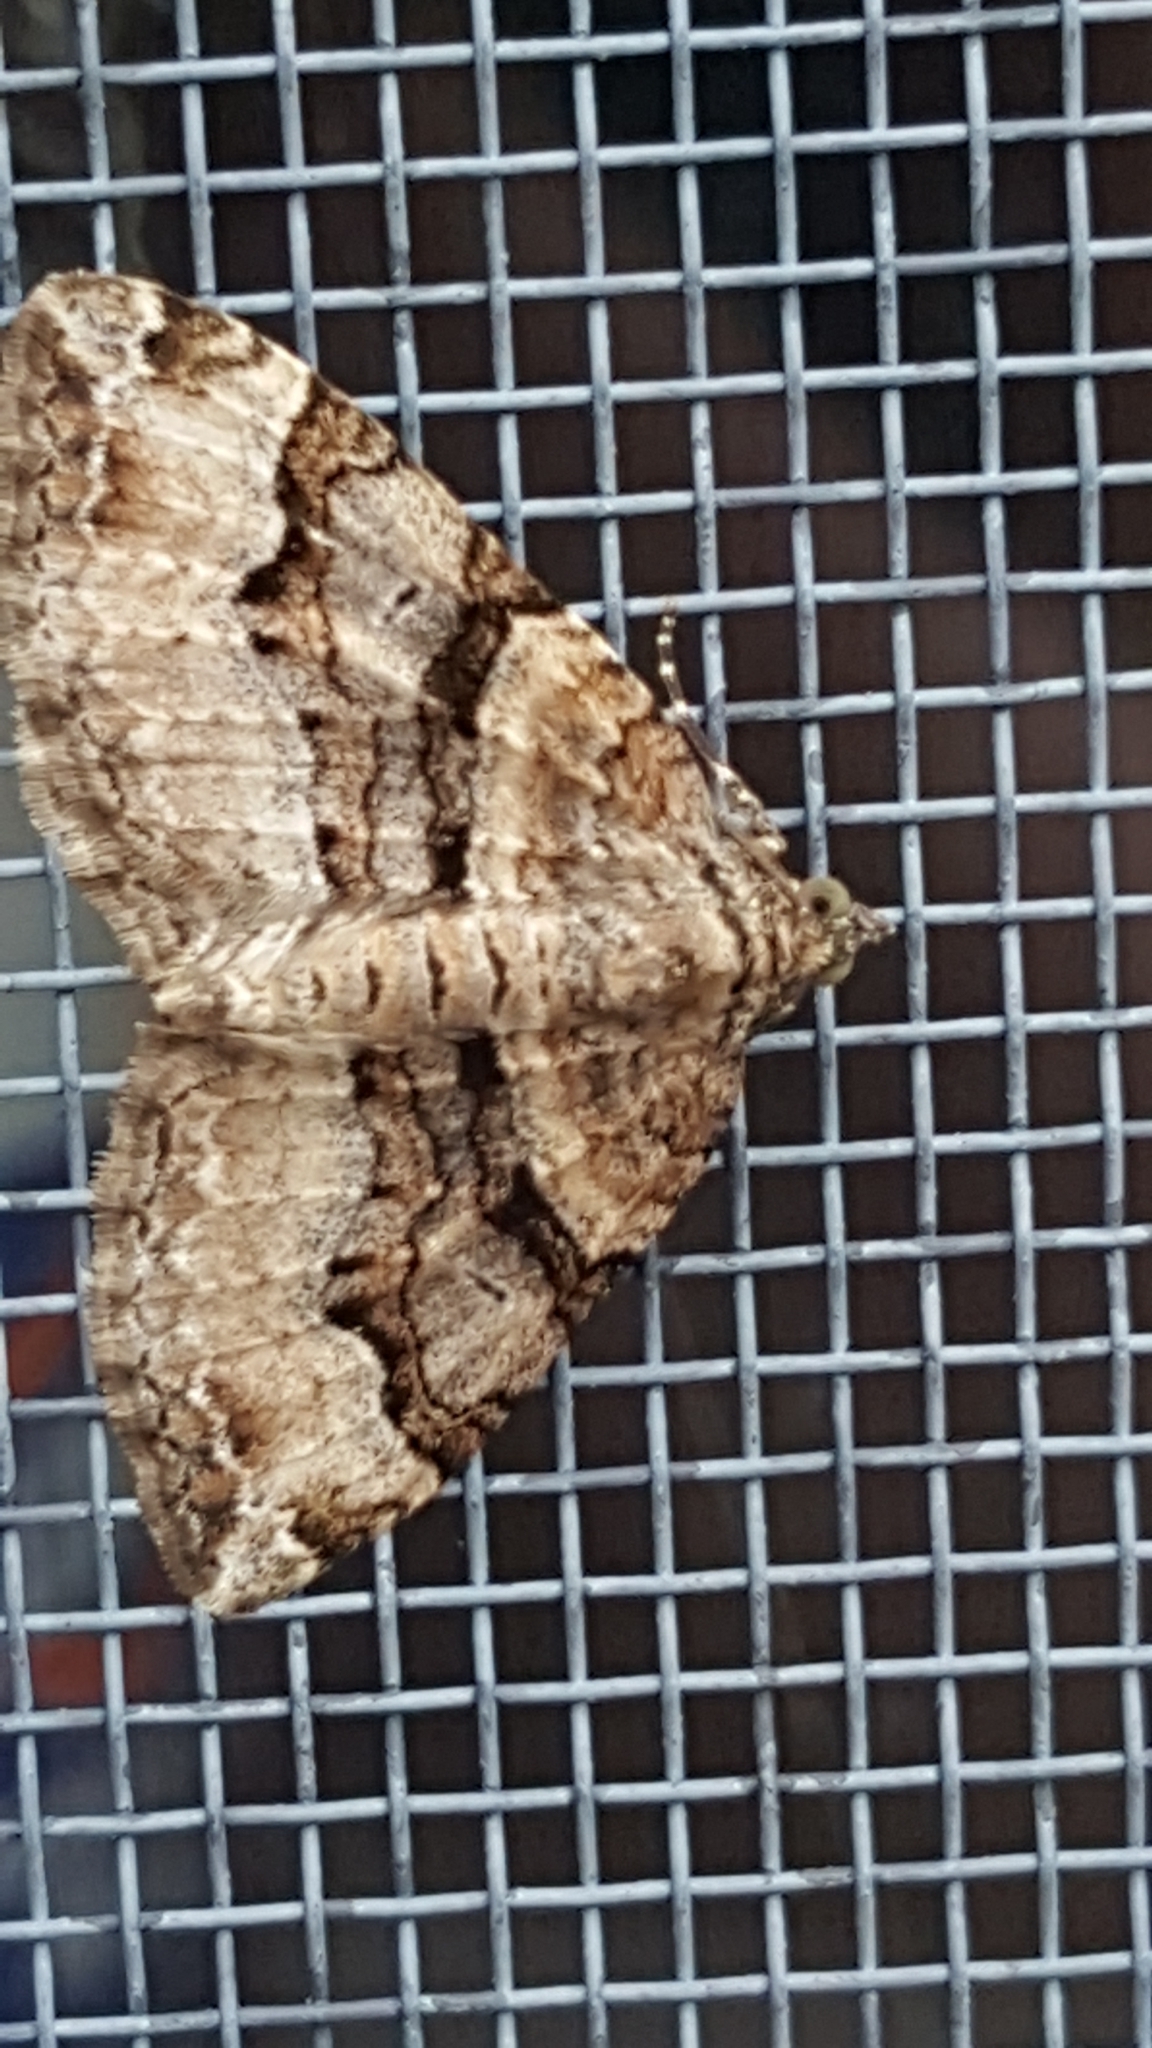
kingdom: Animalia
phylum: Arthropoda
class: Insecta
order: Lepidoptera
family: Geometridae
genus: Xanthorhoe
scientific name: Xanthorhoe lacustrata
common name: Toothed brown carpet
